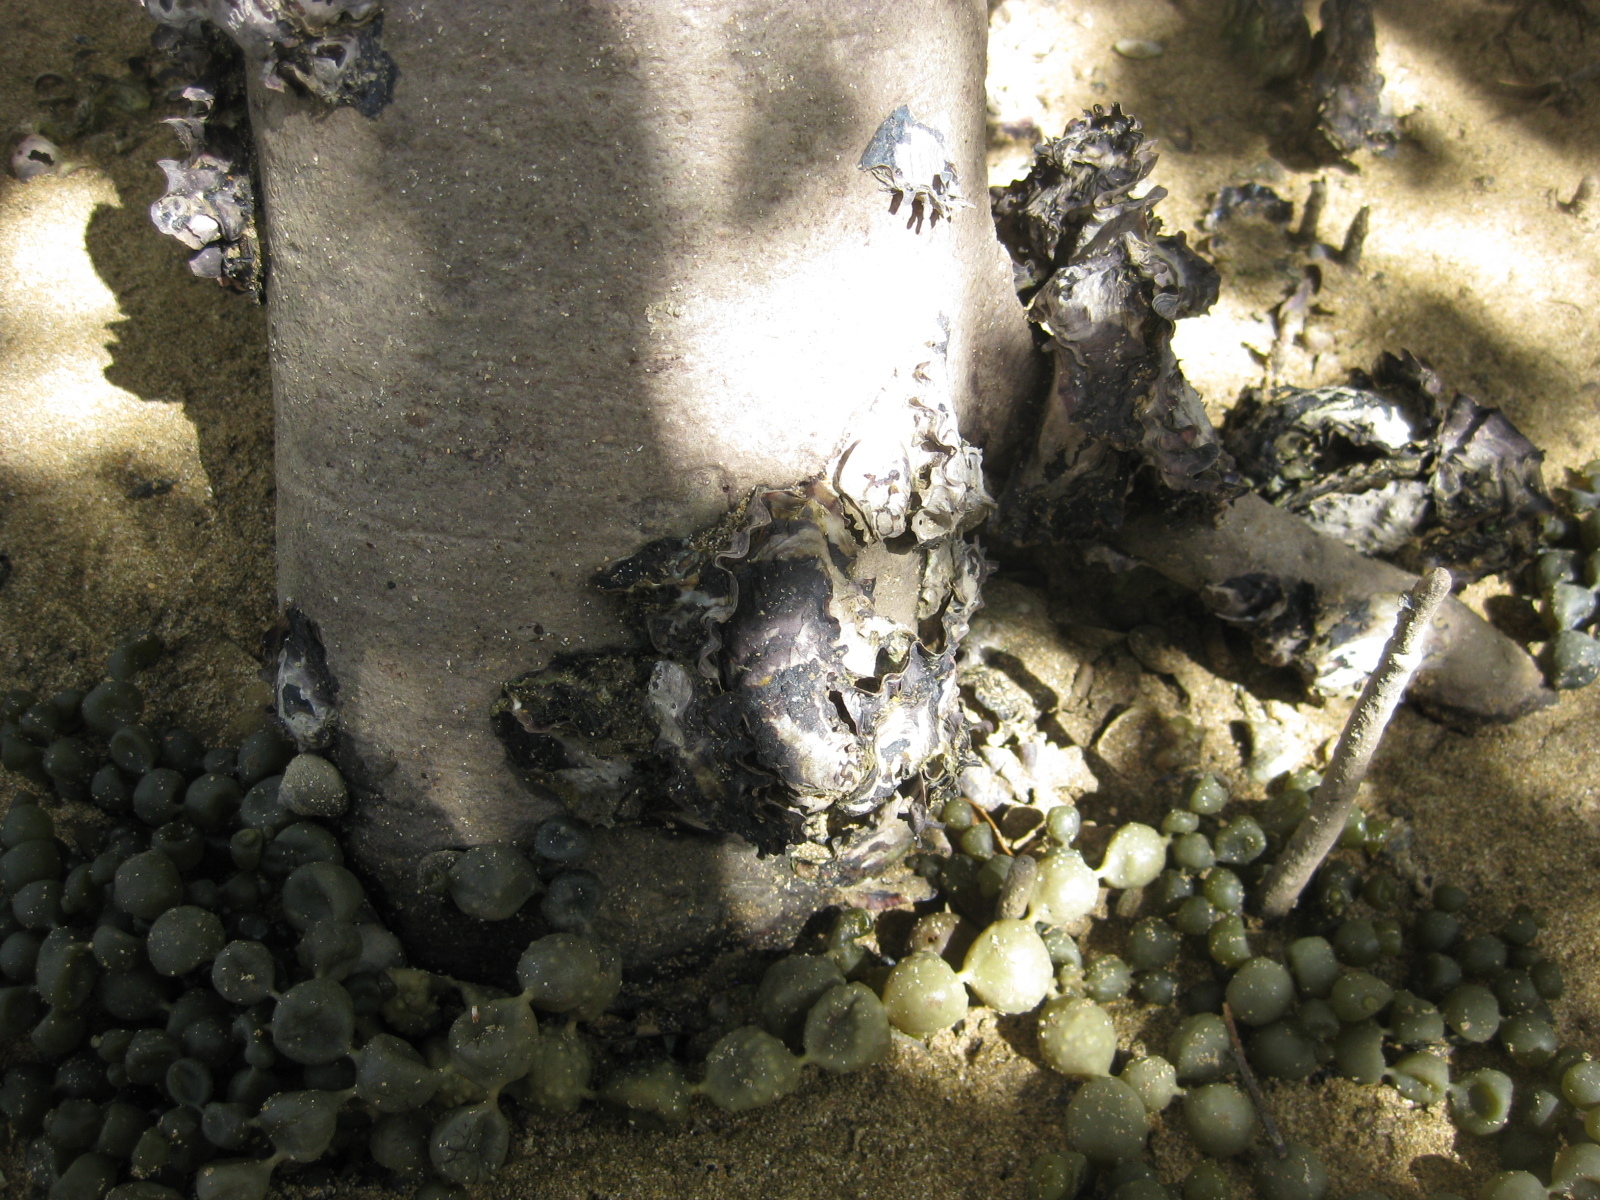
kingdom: Animalia
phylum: Mollusca
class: Bivalvia
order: Ostreida
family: Ostreidae
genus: Saccostrea
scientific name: Saccostrea glomerata
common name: Sydney cupped oyster
